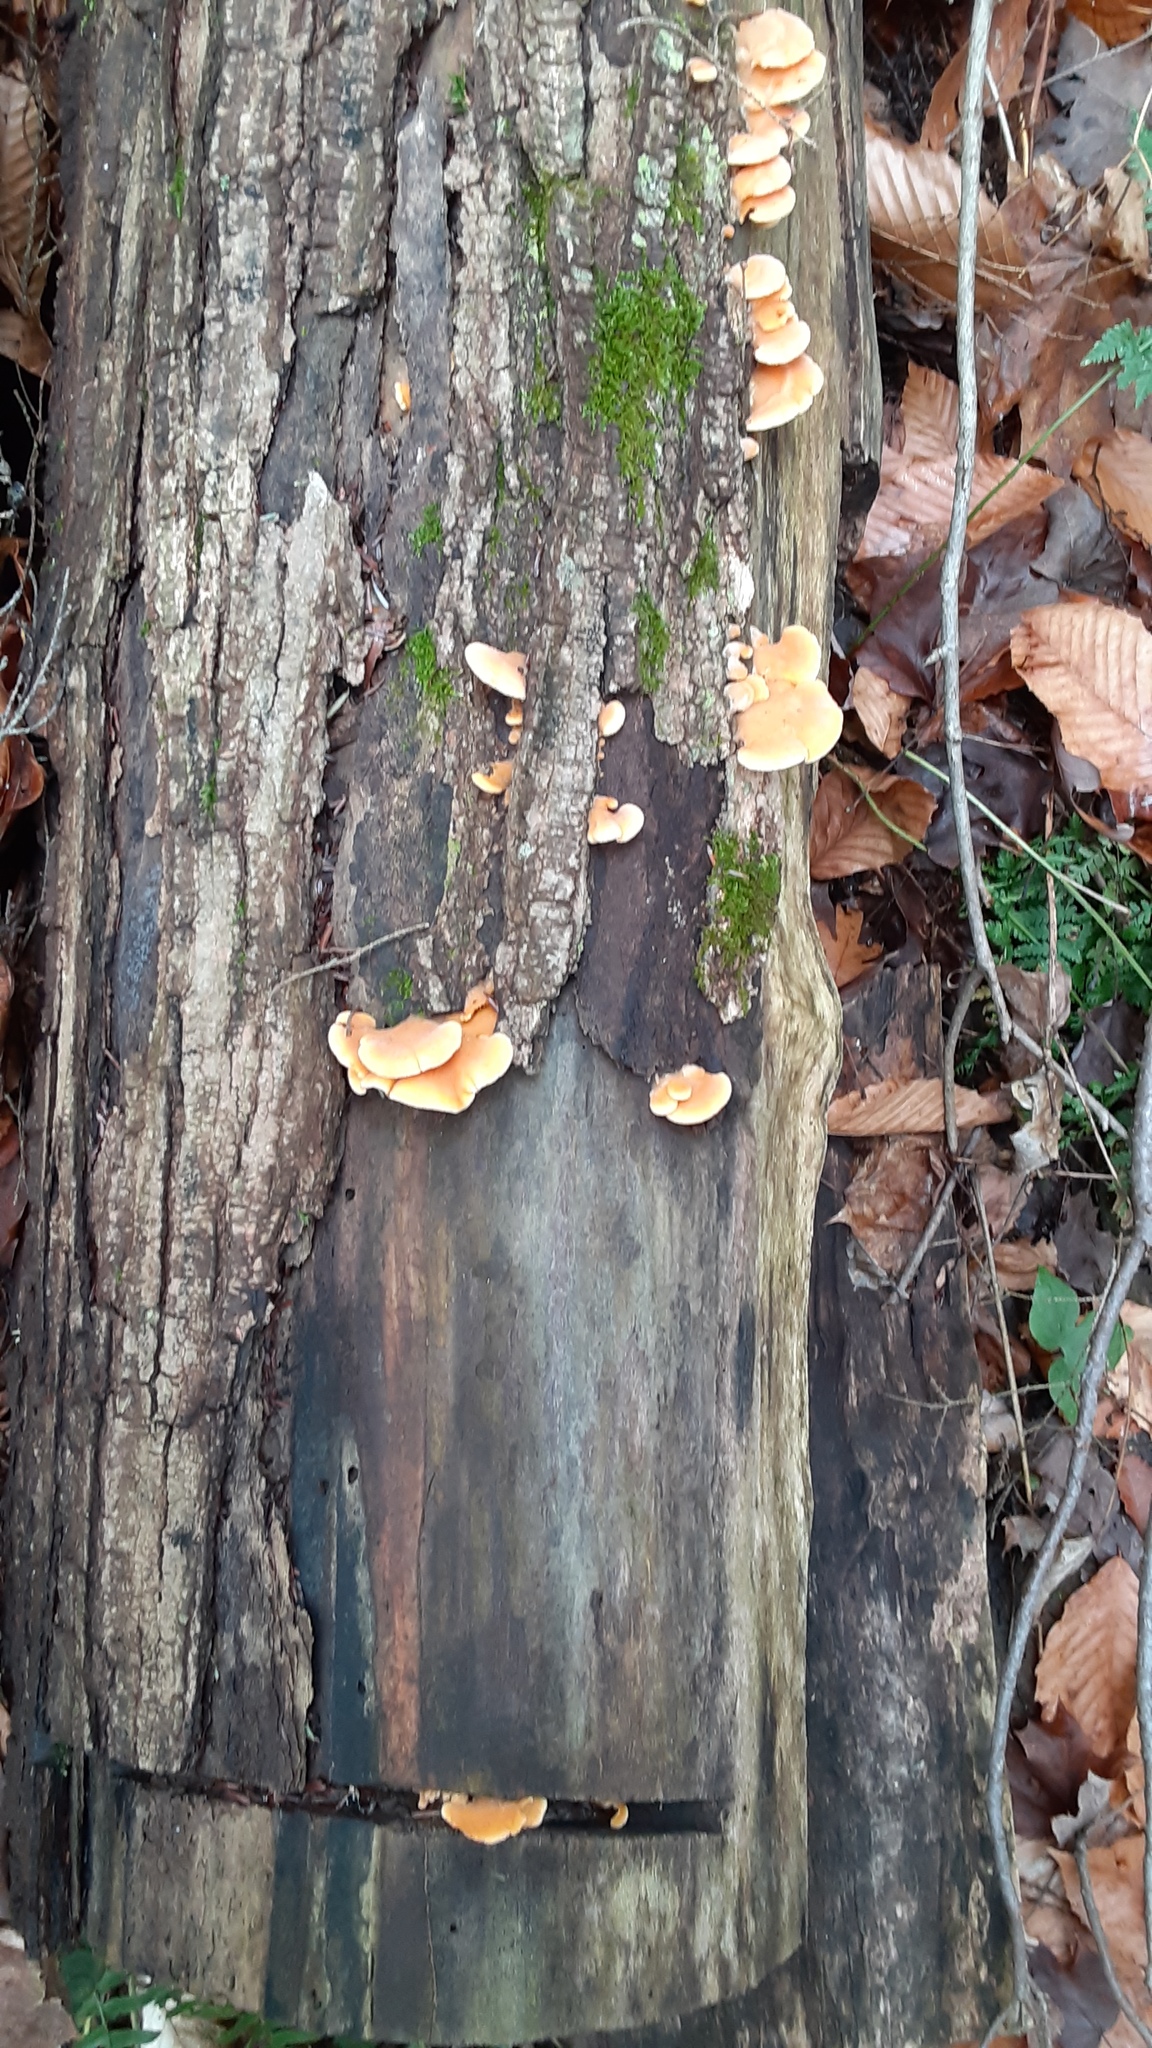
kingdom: Fungi
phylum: Basidiomycota
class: Agaricomycetes
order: Agaricales
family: Phyllotopsidaceae
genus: Phyllotopsis
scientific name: Phyllotopsis nidulans
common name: Orange mock oyster
